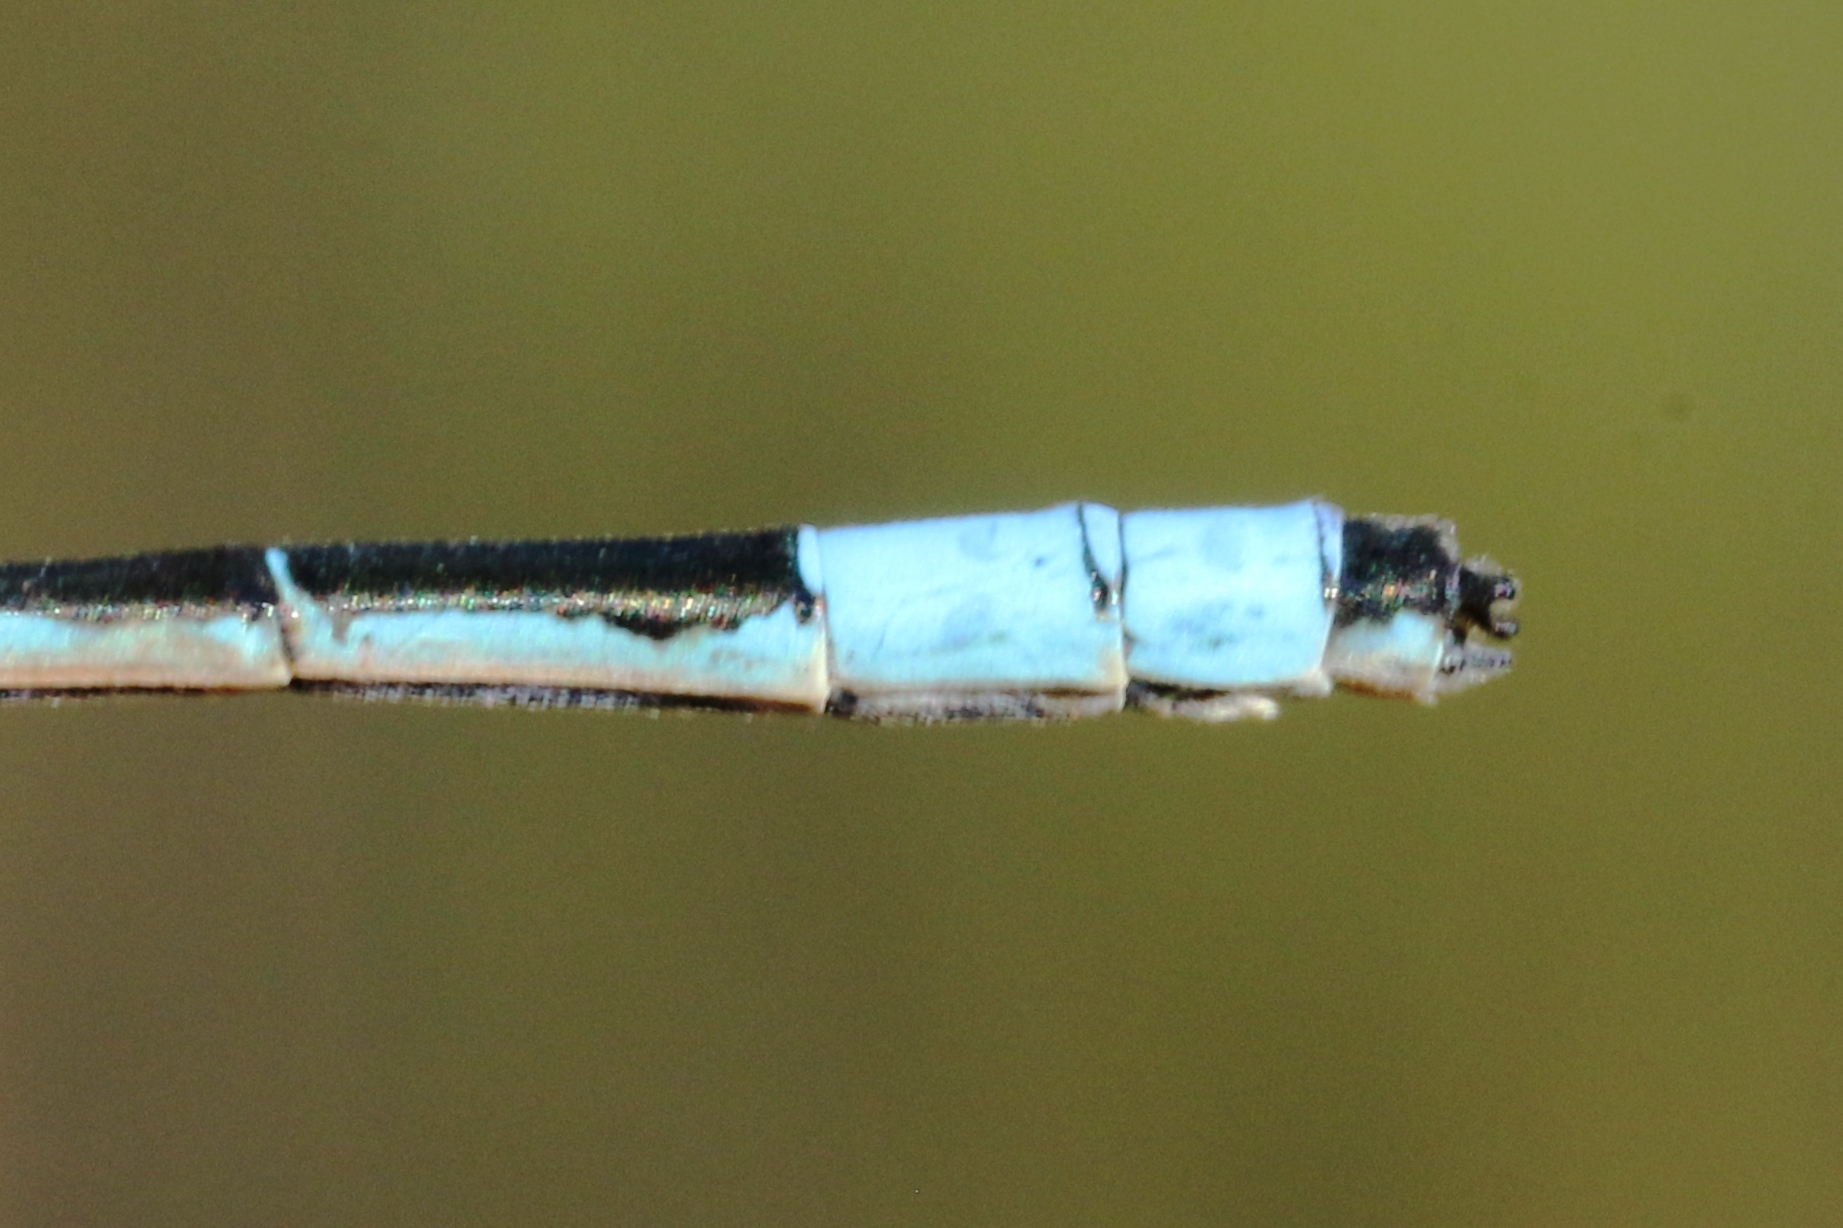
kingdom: Animalia
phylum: Arthropoda
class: Insecta
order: Odonata
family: Coenagrionidae
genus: Enallagma
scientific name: Enallagma ebrium
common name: Marsh bluet
